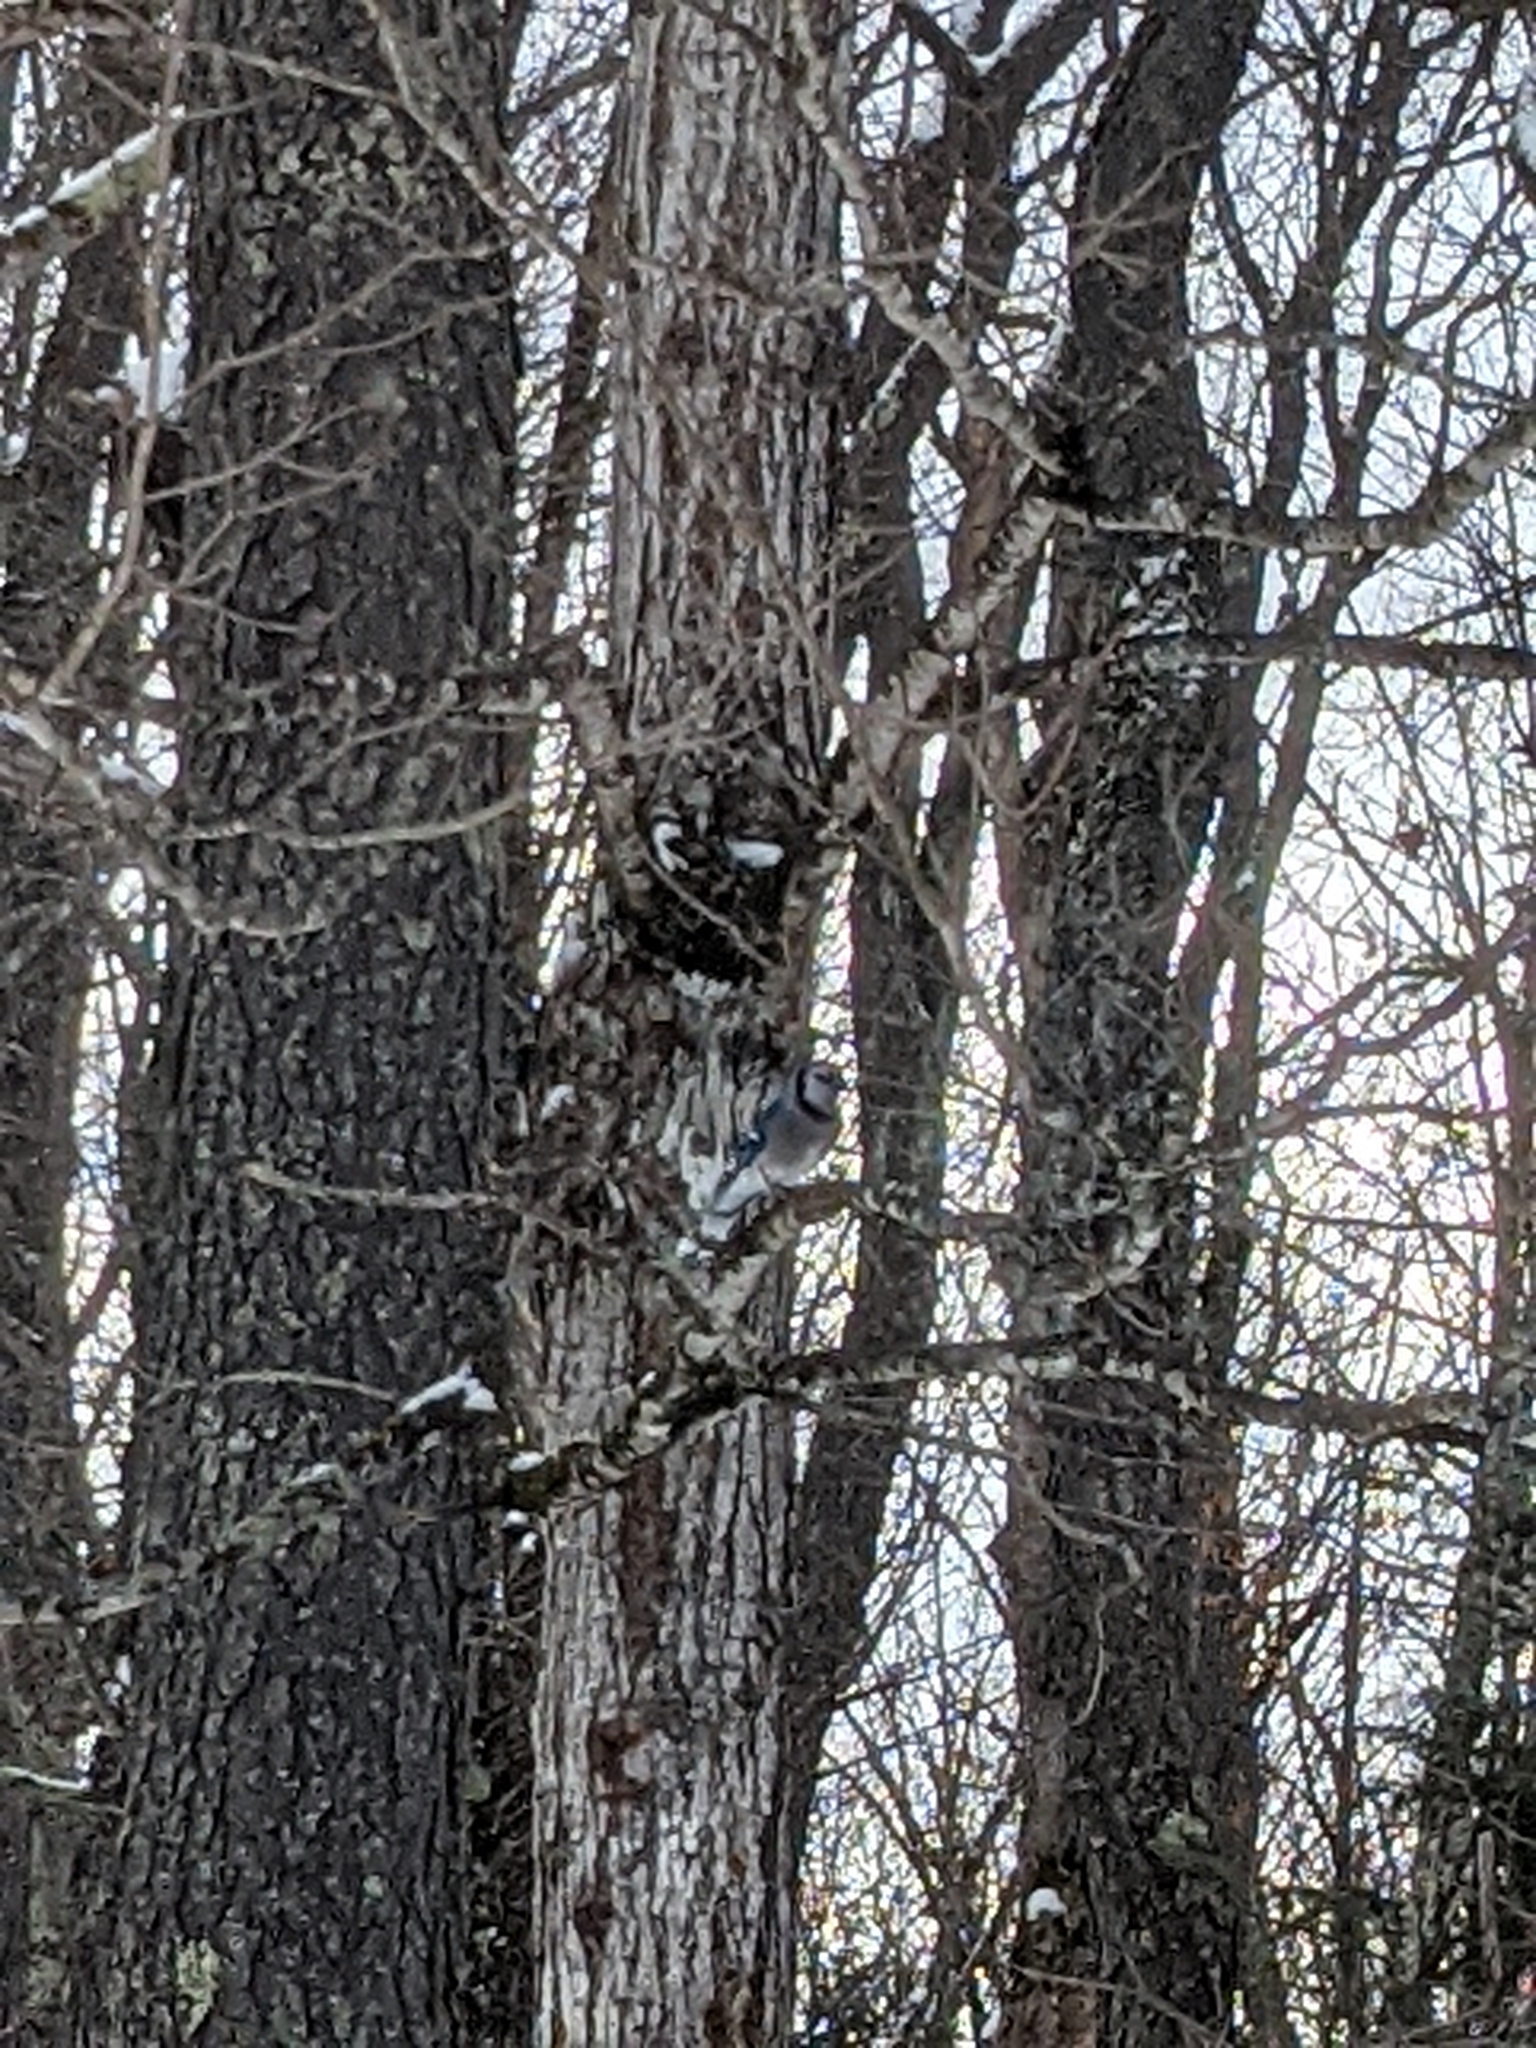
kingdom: Animalia
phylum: Chordata
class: Aves
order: Passeriformes
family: Corvidae
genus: Cyanocitta
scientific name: Cyanocitta cristata
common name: Blue jay
